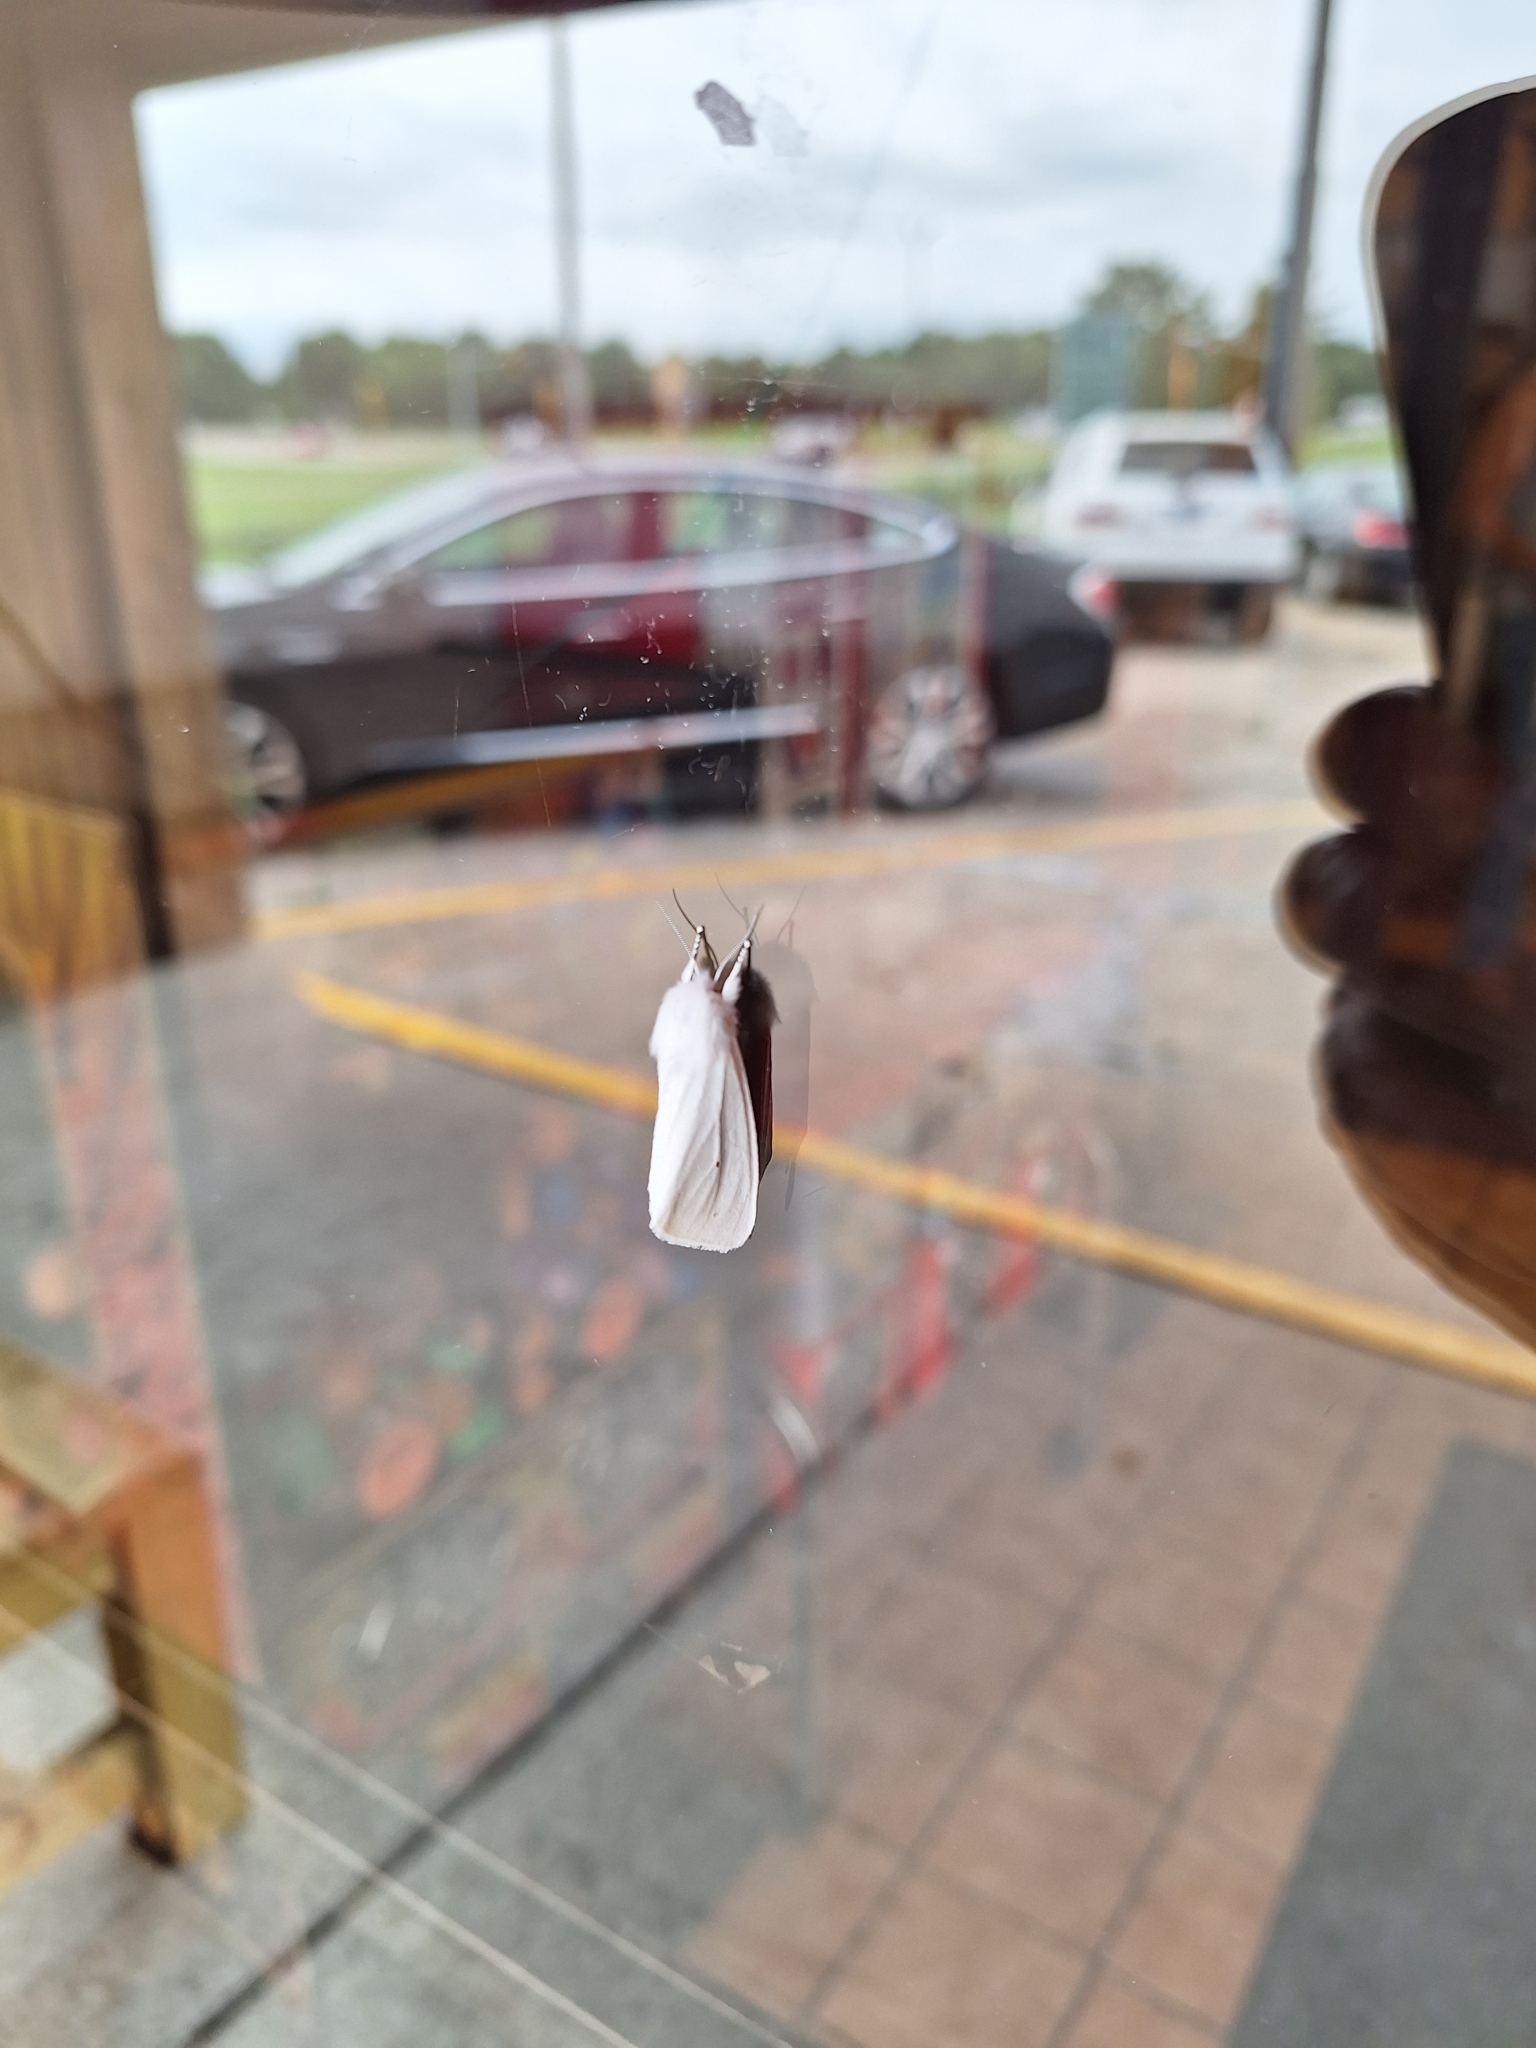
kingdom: Animalia
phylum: Arthropoda
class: Insecta
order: Lepidoptera
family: Erebidae
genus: Spilosoma
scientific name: Spilosoma virginica
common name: Virginia tiger moth
